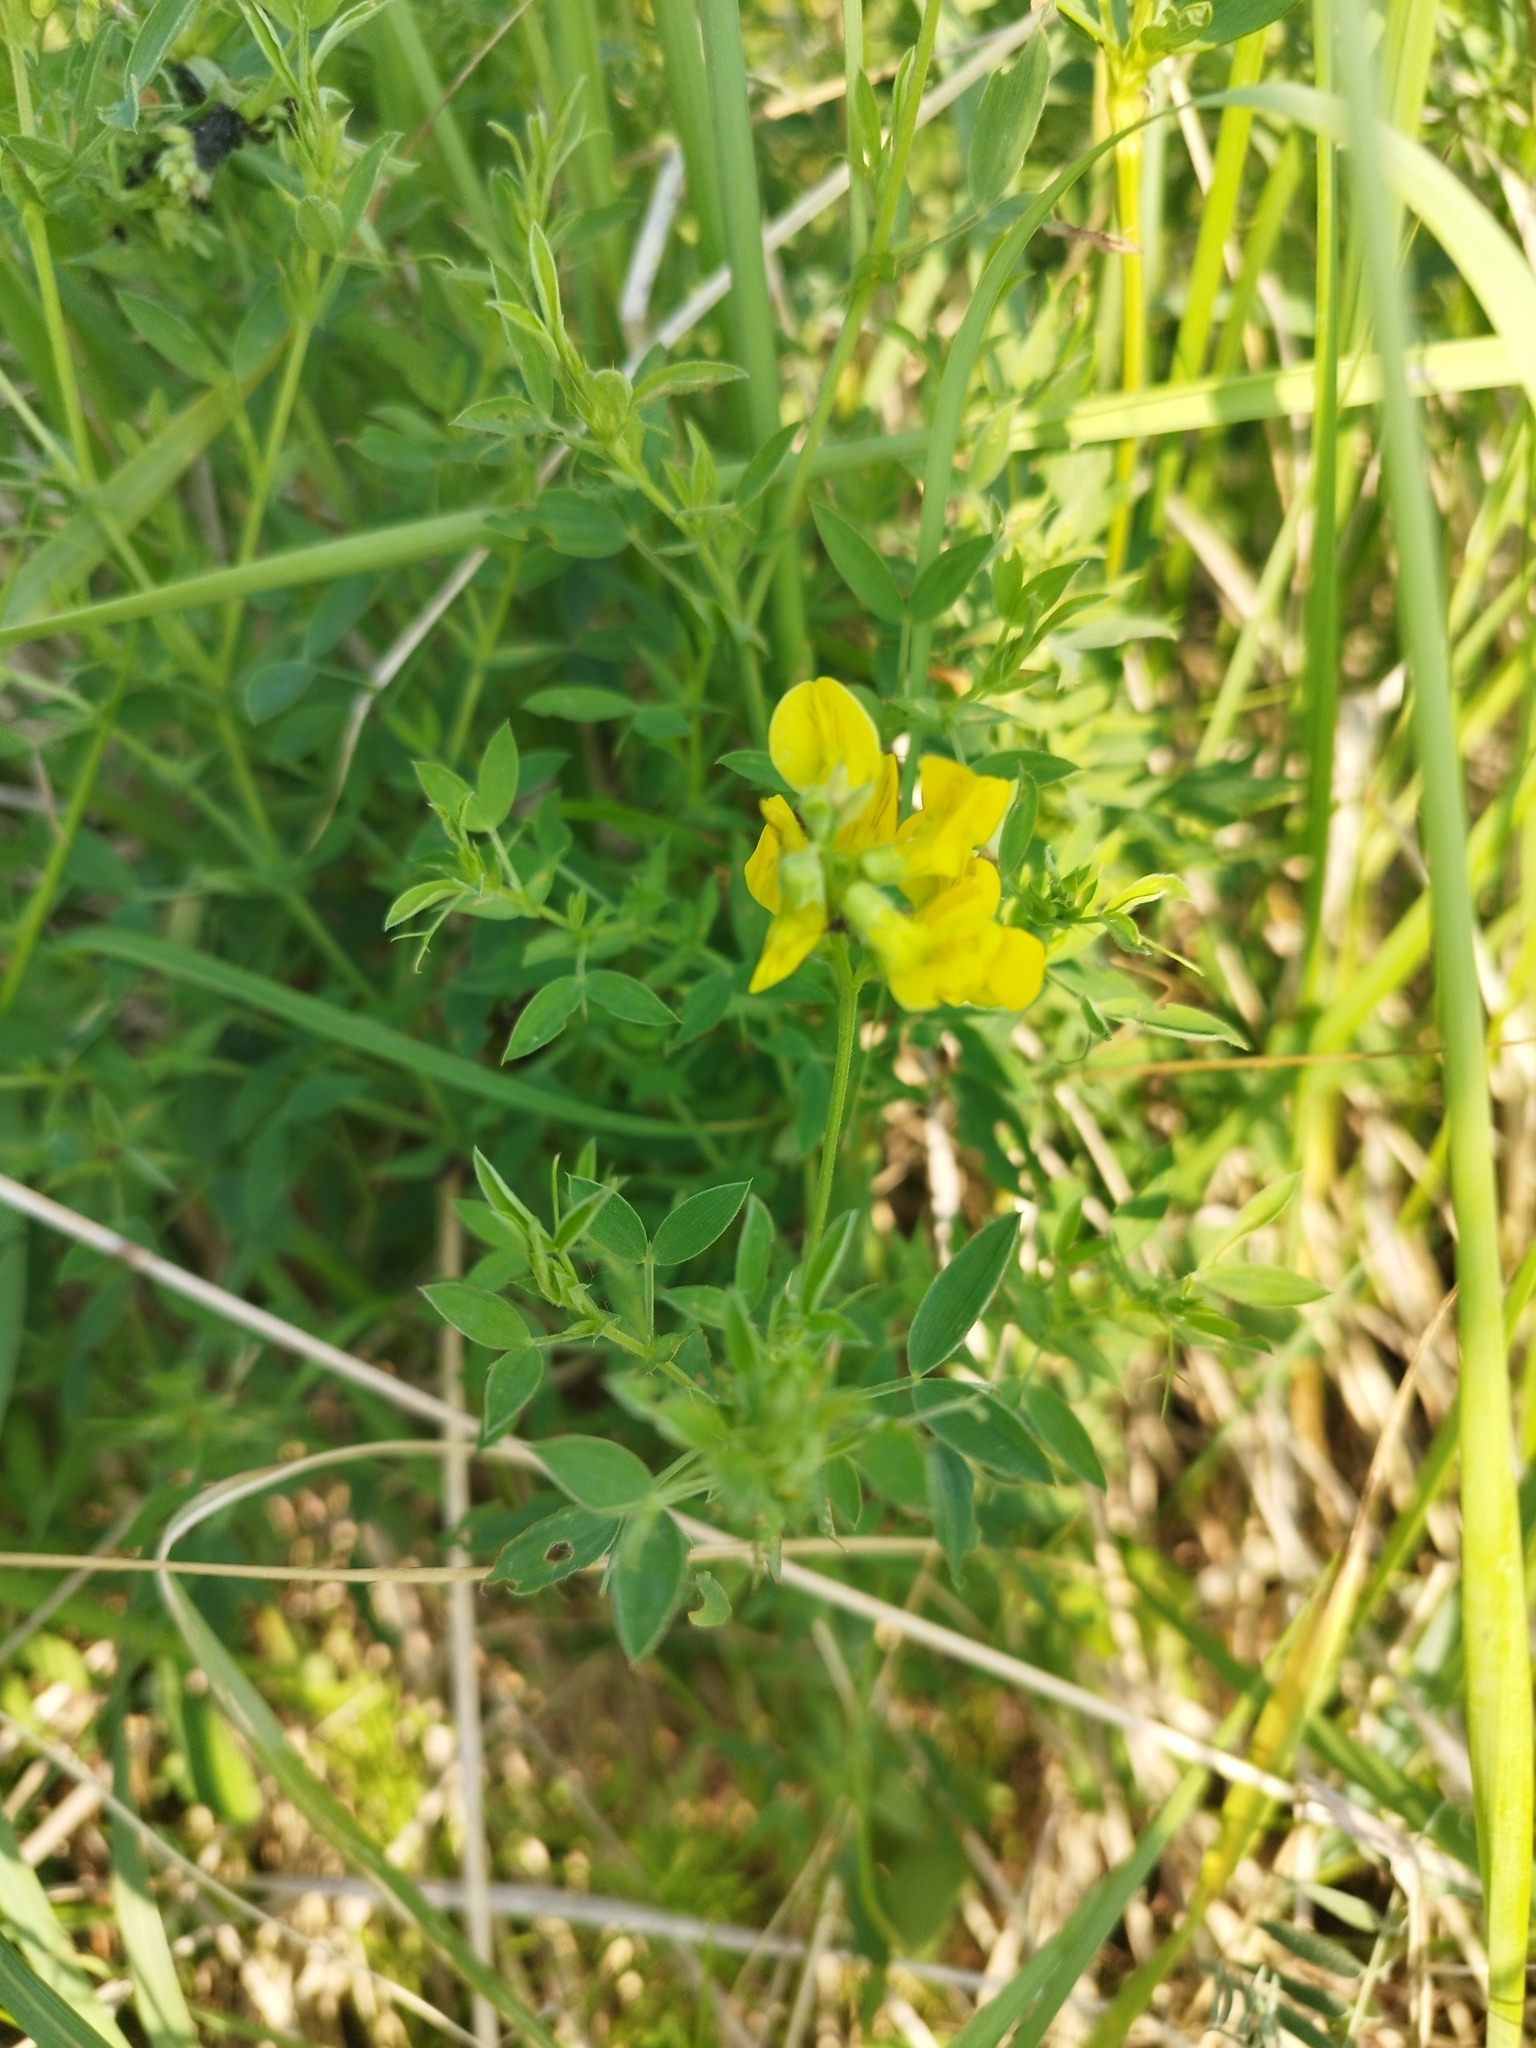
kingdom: Plantae
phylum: Tracheophyta
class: Magnoliopsida
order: Fabales
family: Fabaceae
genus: Lathyrus
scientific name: Lathyrus pratensis
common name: Meadow vetchling
